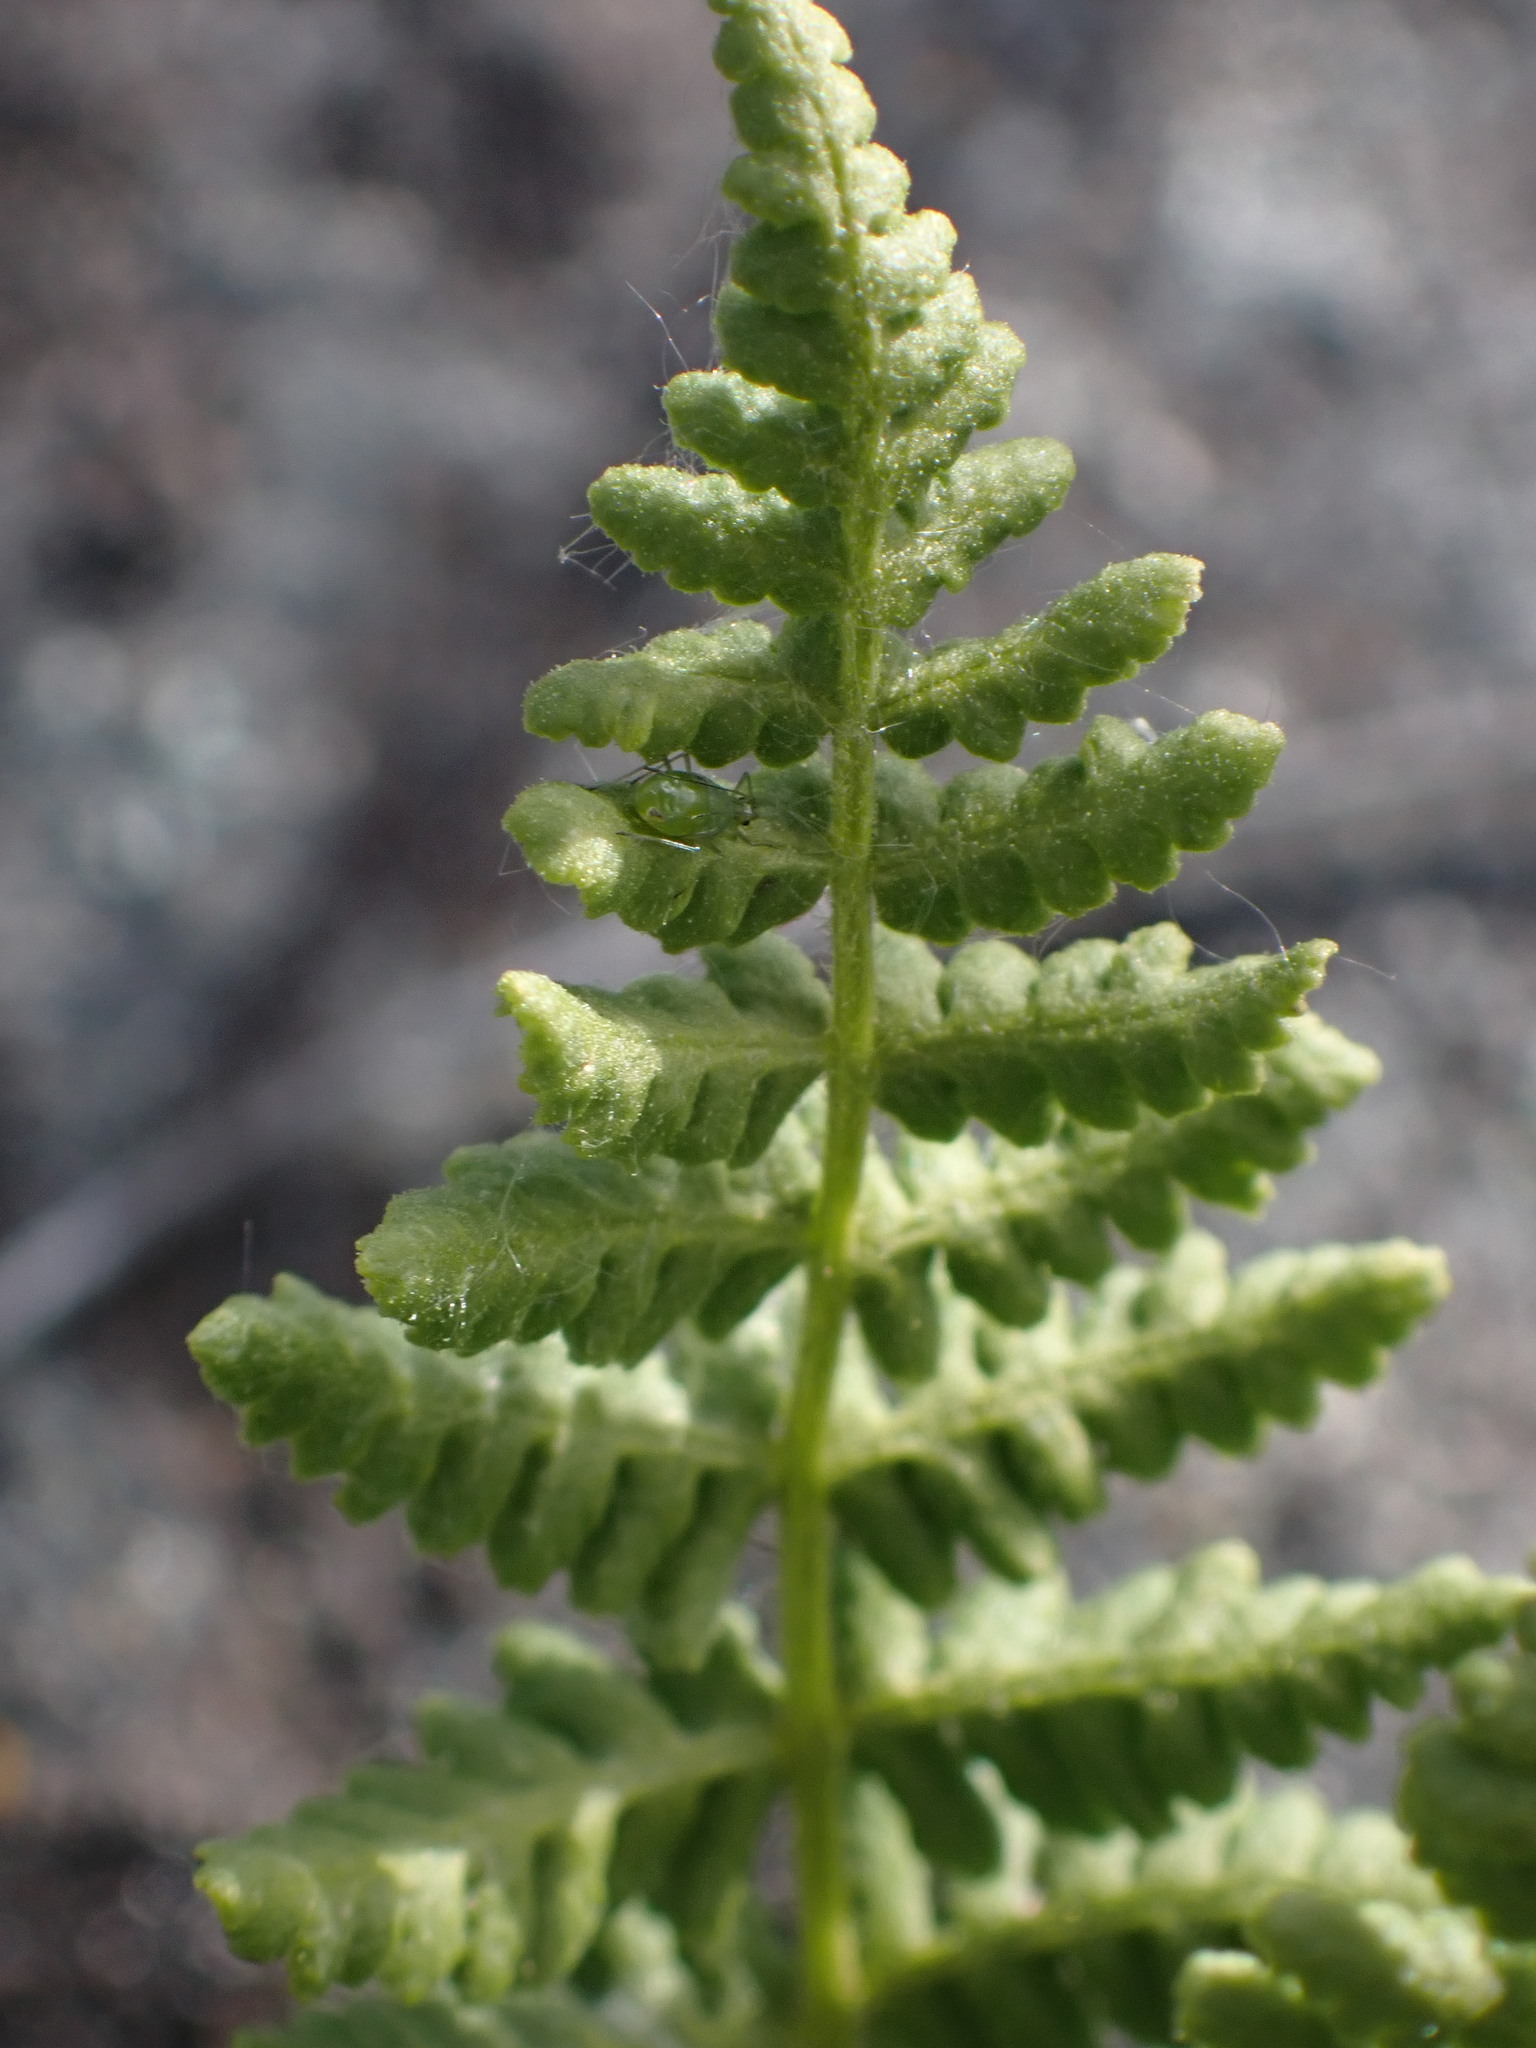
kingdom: Plantae
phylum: Tracheophyta
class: Polypodiopsida
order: Polypodiales
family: Woodsiaceae
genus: Physematium
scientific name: Physematium scopulinum
